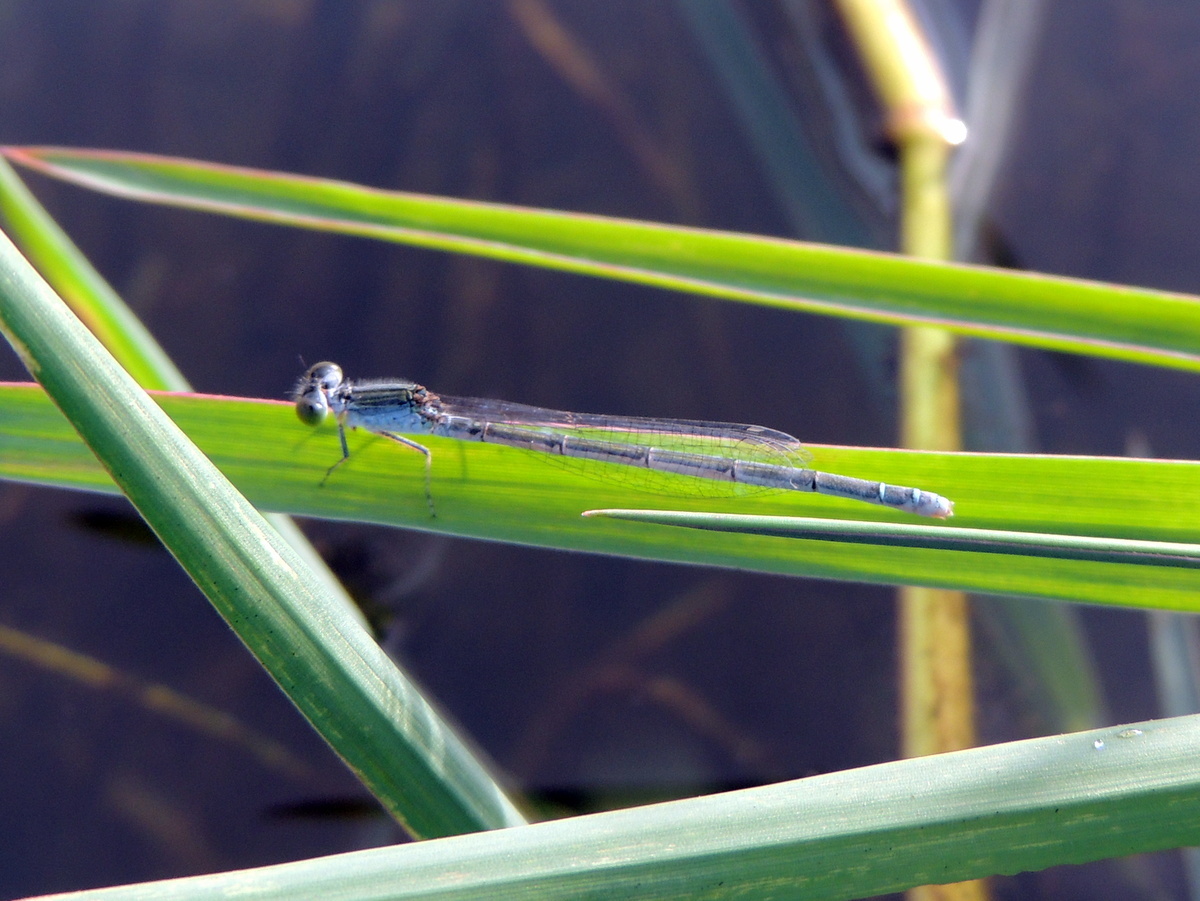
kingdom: Animalia
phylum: Arthropoda
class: Insecta
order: Odonata
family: Coenagrionidae
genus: Pseudagrion
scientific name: Pseudagrion hypermelas
